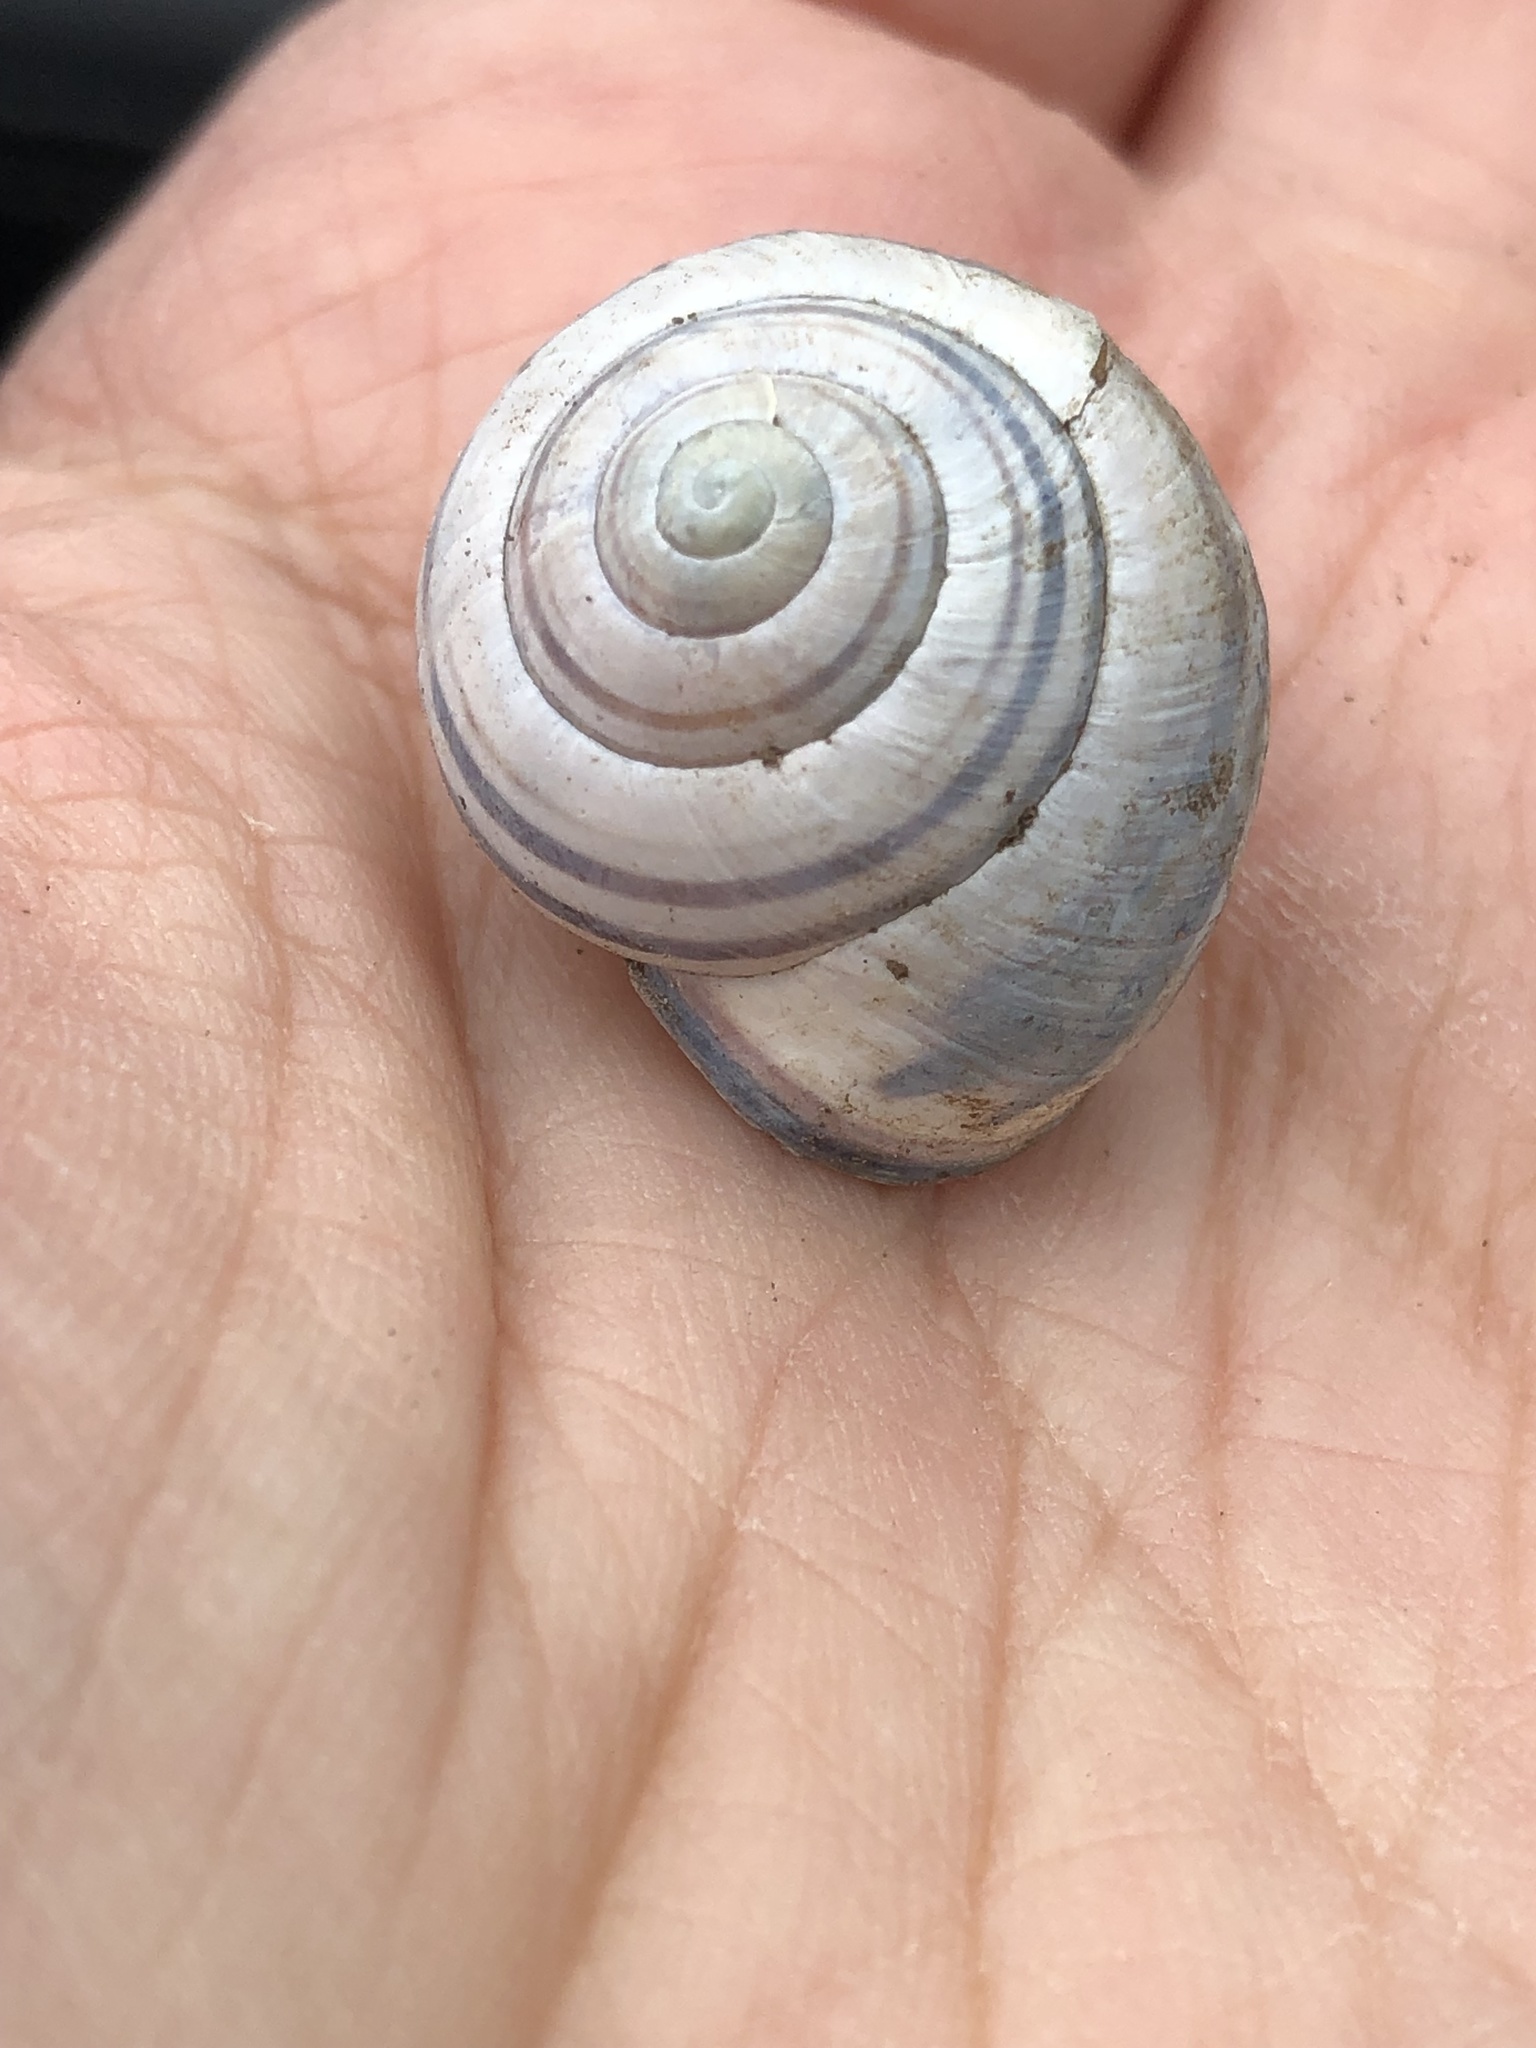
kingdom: Animalia
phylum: Mollusca
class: Gastropoda
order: Stylommatophora
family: Helicidae
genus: Cepaea
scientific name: Cepaea nemoralis
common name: Grovesnail
